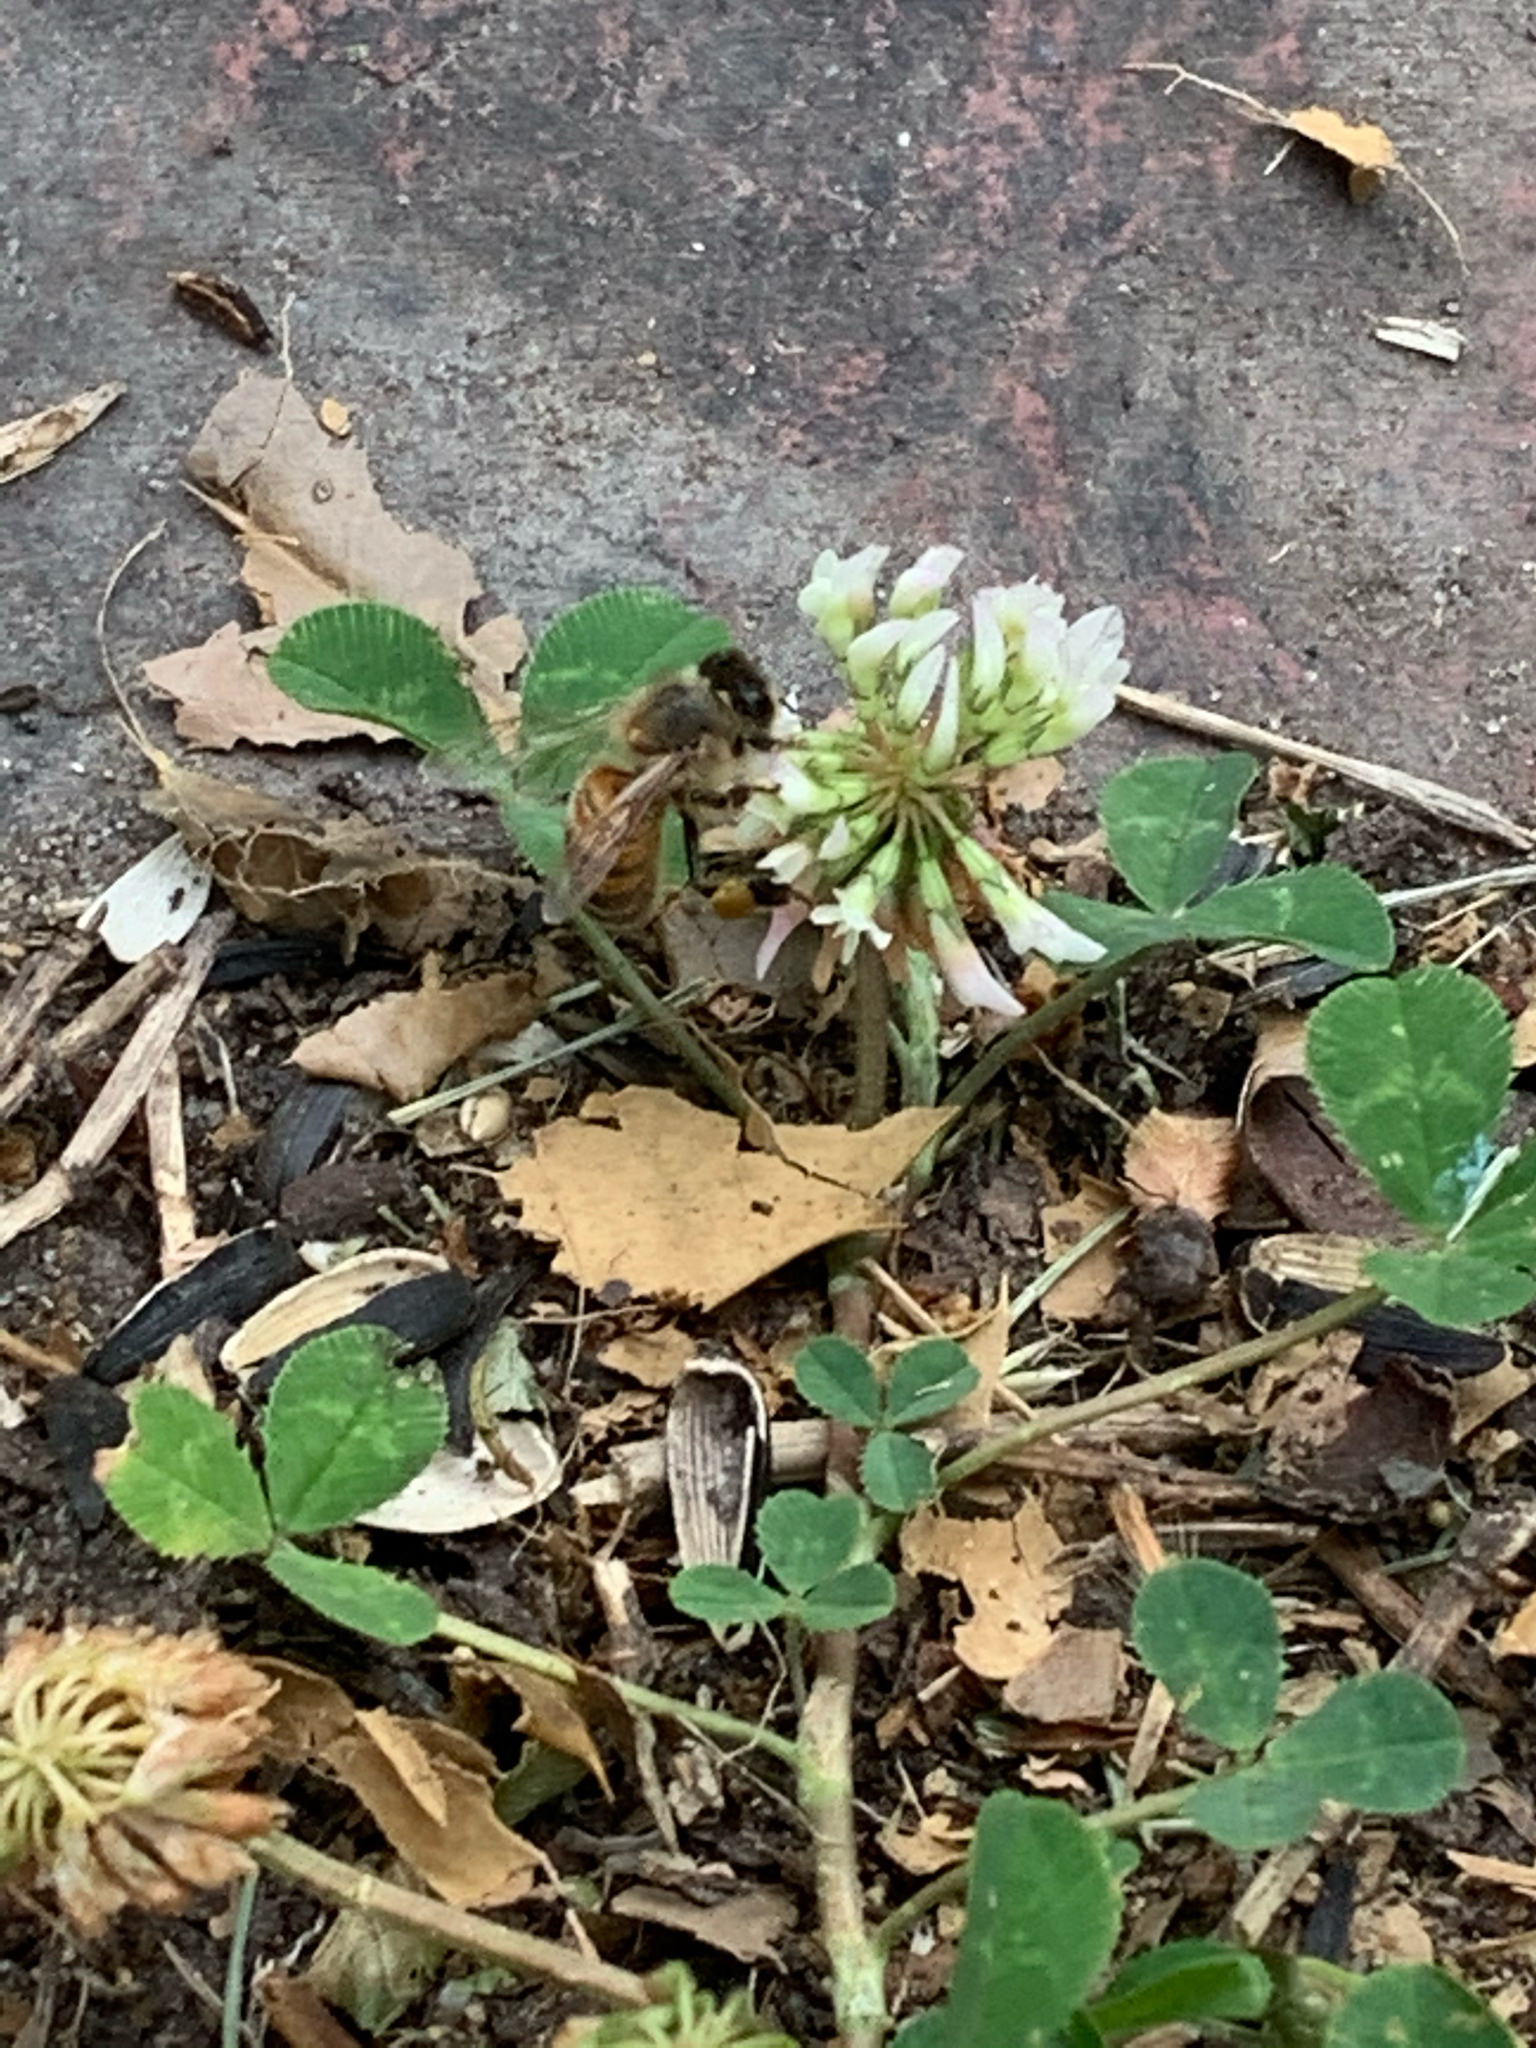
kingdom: Animalia
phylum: Arthropoda
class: Insecta
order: Hymenoptera
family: Apidae
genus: Apis
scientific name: Apis mellifera
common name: Honey bee
